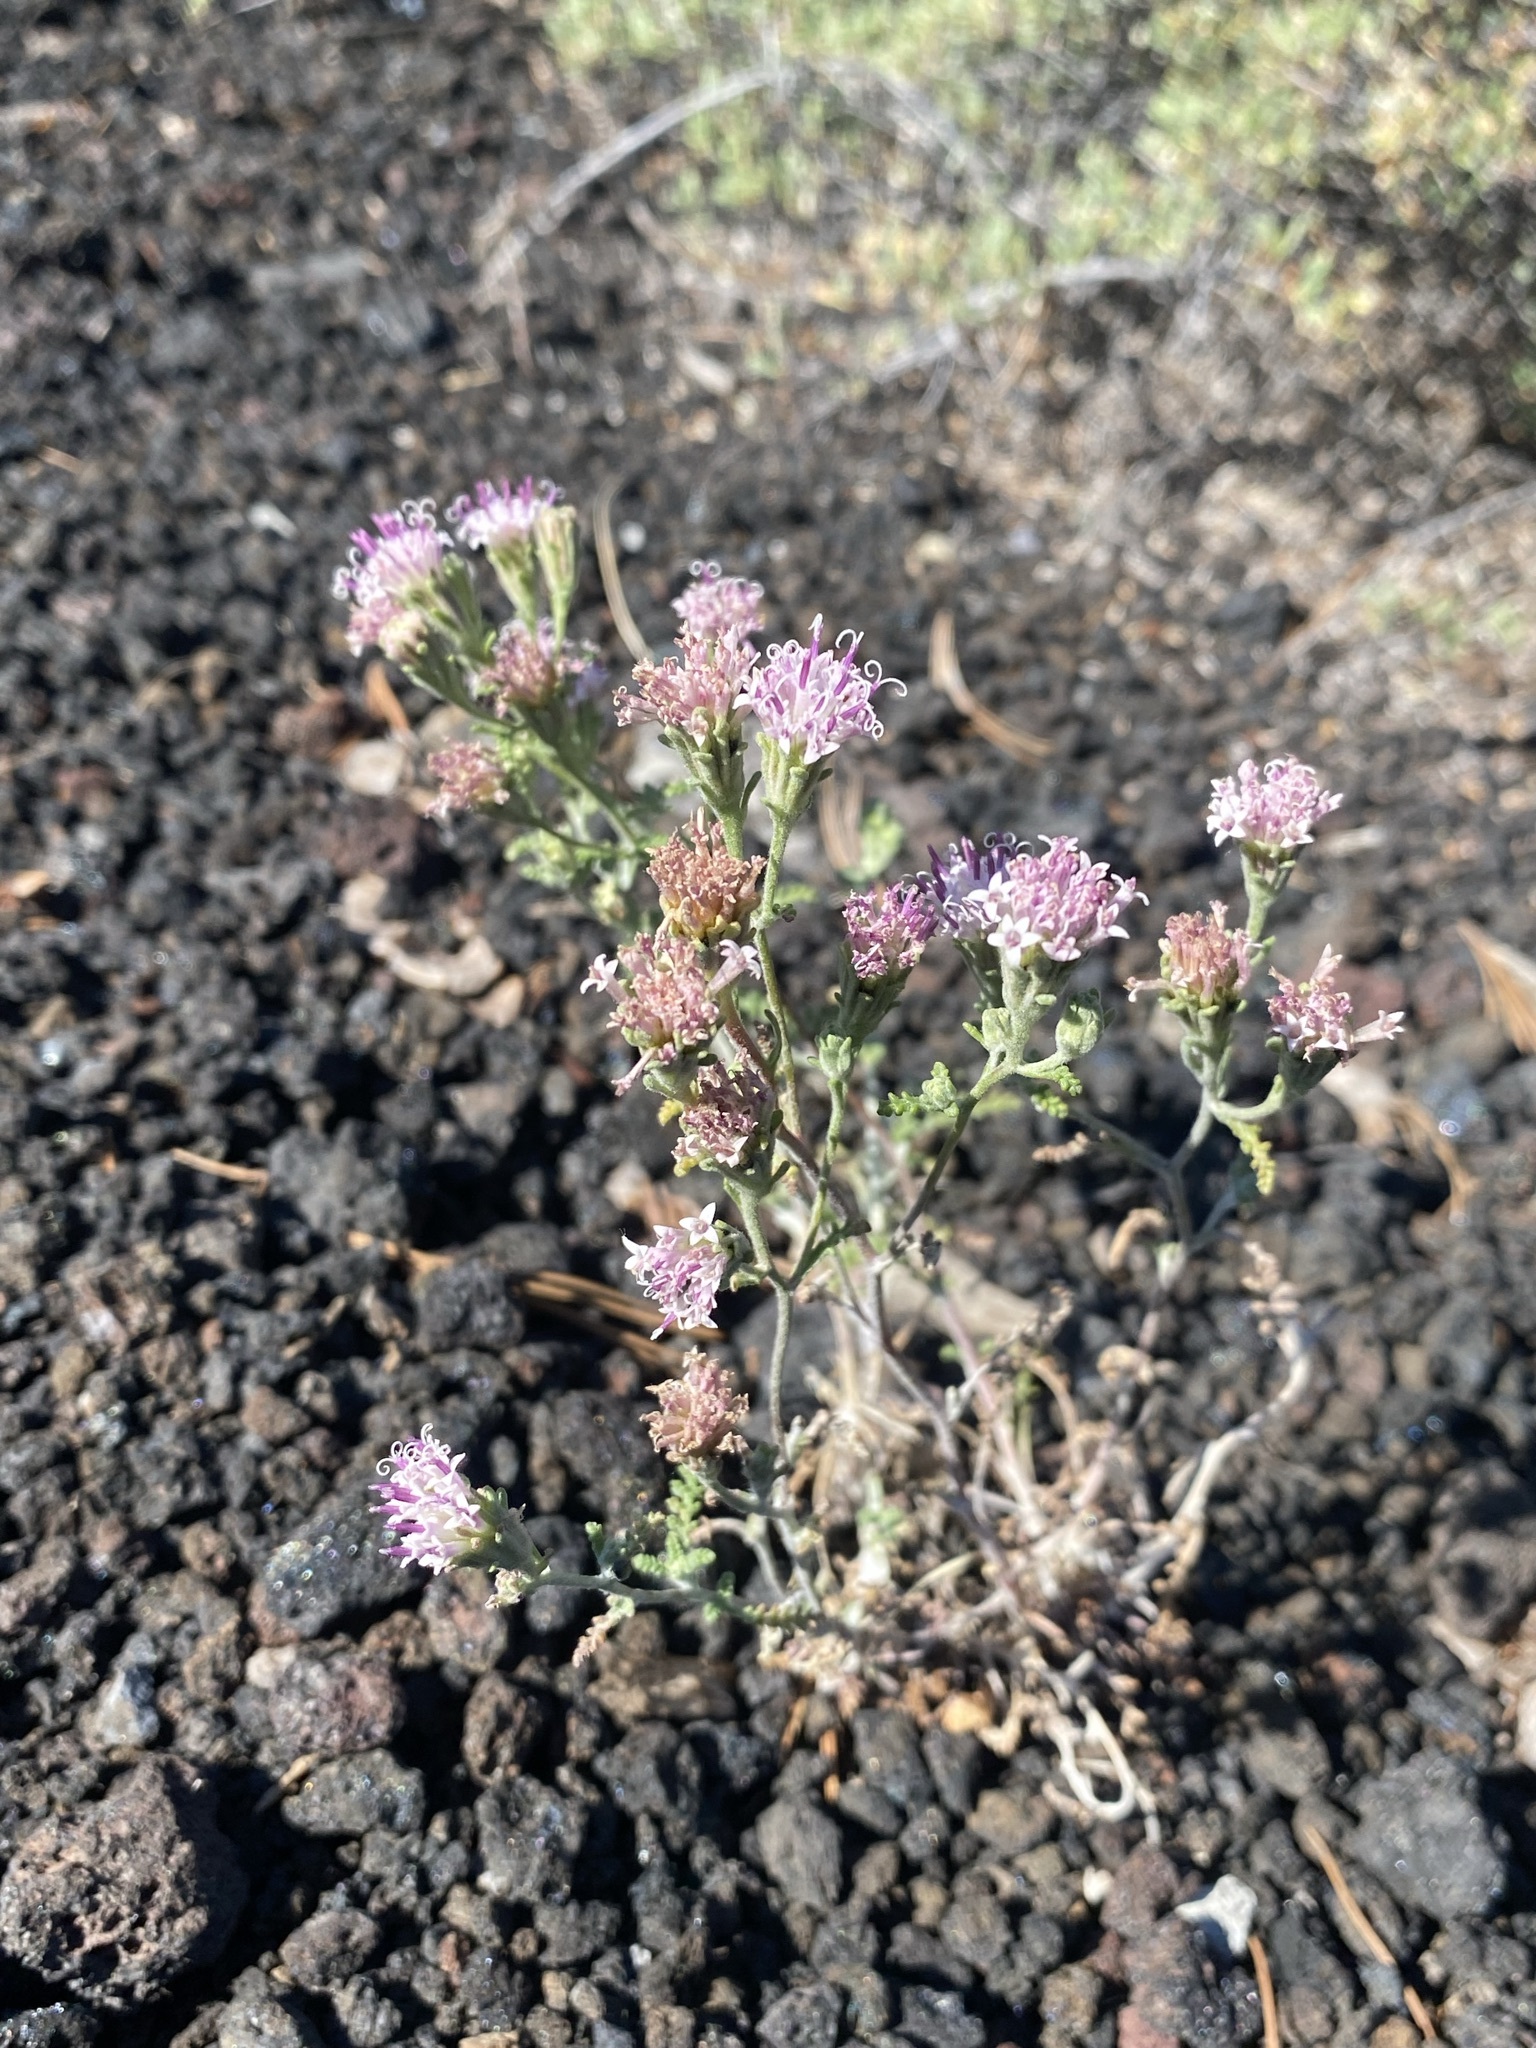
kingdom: Plantae
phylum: Tracheophyta
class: Magnoliopsida
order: Asterales
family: Asteraceae
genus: Chaenactis
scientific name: Chaenactis douglasii
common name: Hoary pincushion
